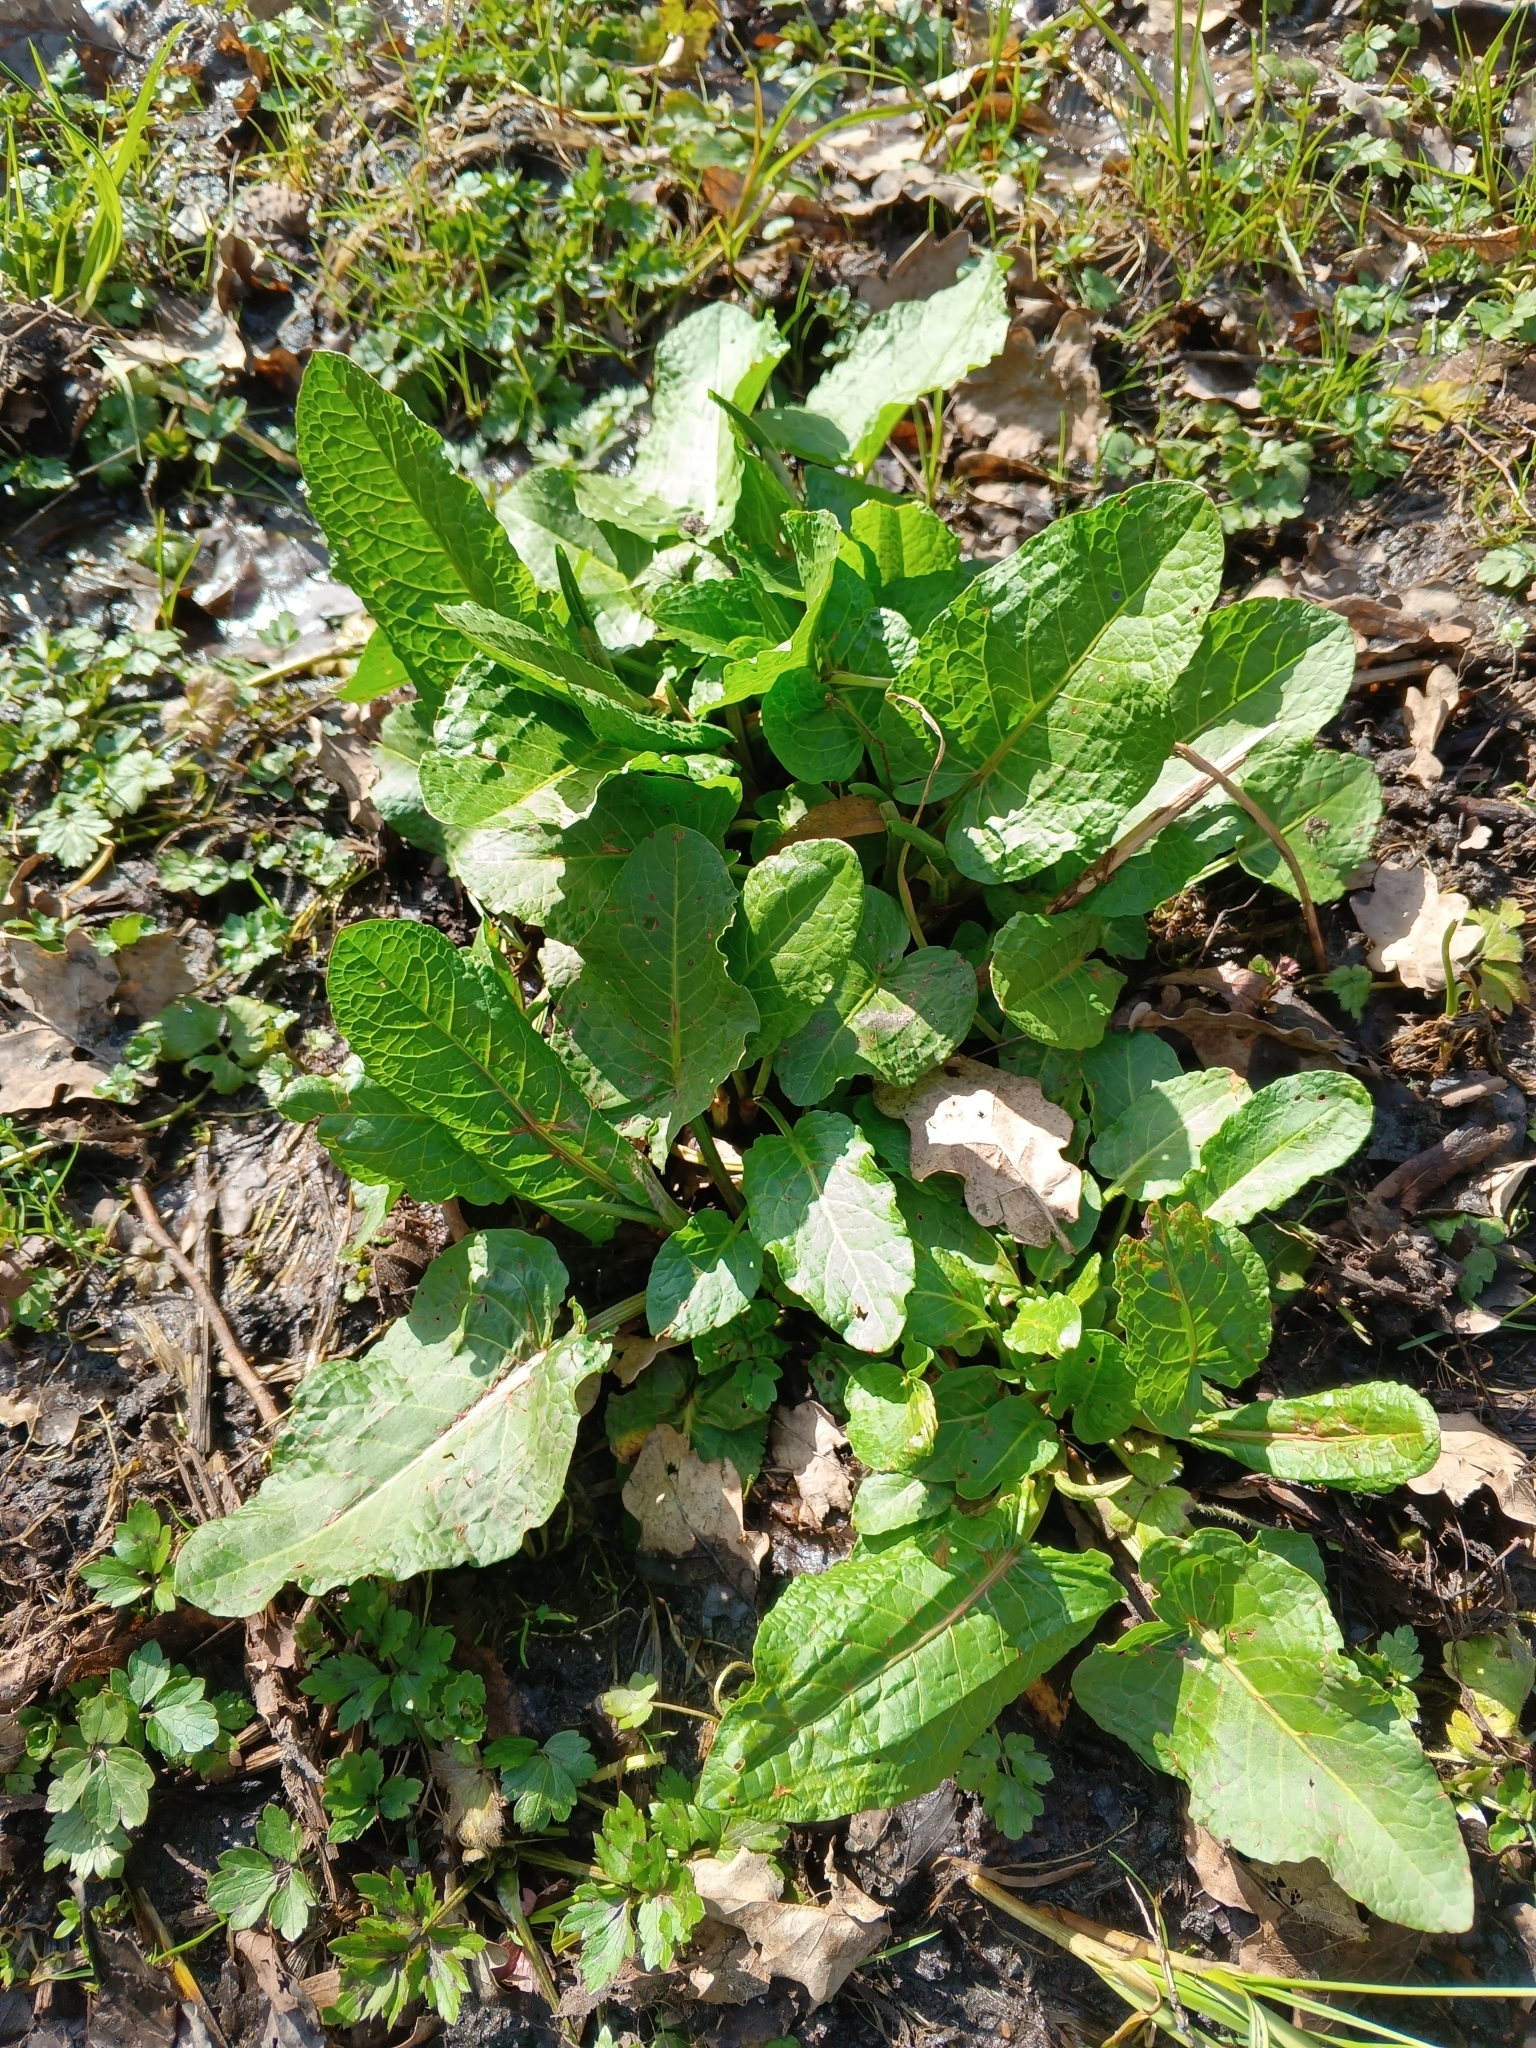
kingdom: Plantae
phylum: Tracheophyta
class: Magnoliopsida
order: Caryophyllales
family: Polygonaceae
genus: Rumex
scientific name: Rumex obtusifolius
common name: Bitter dock
